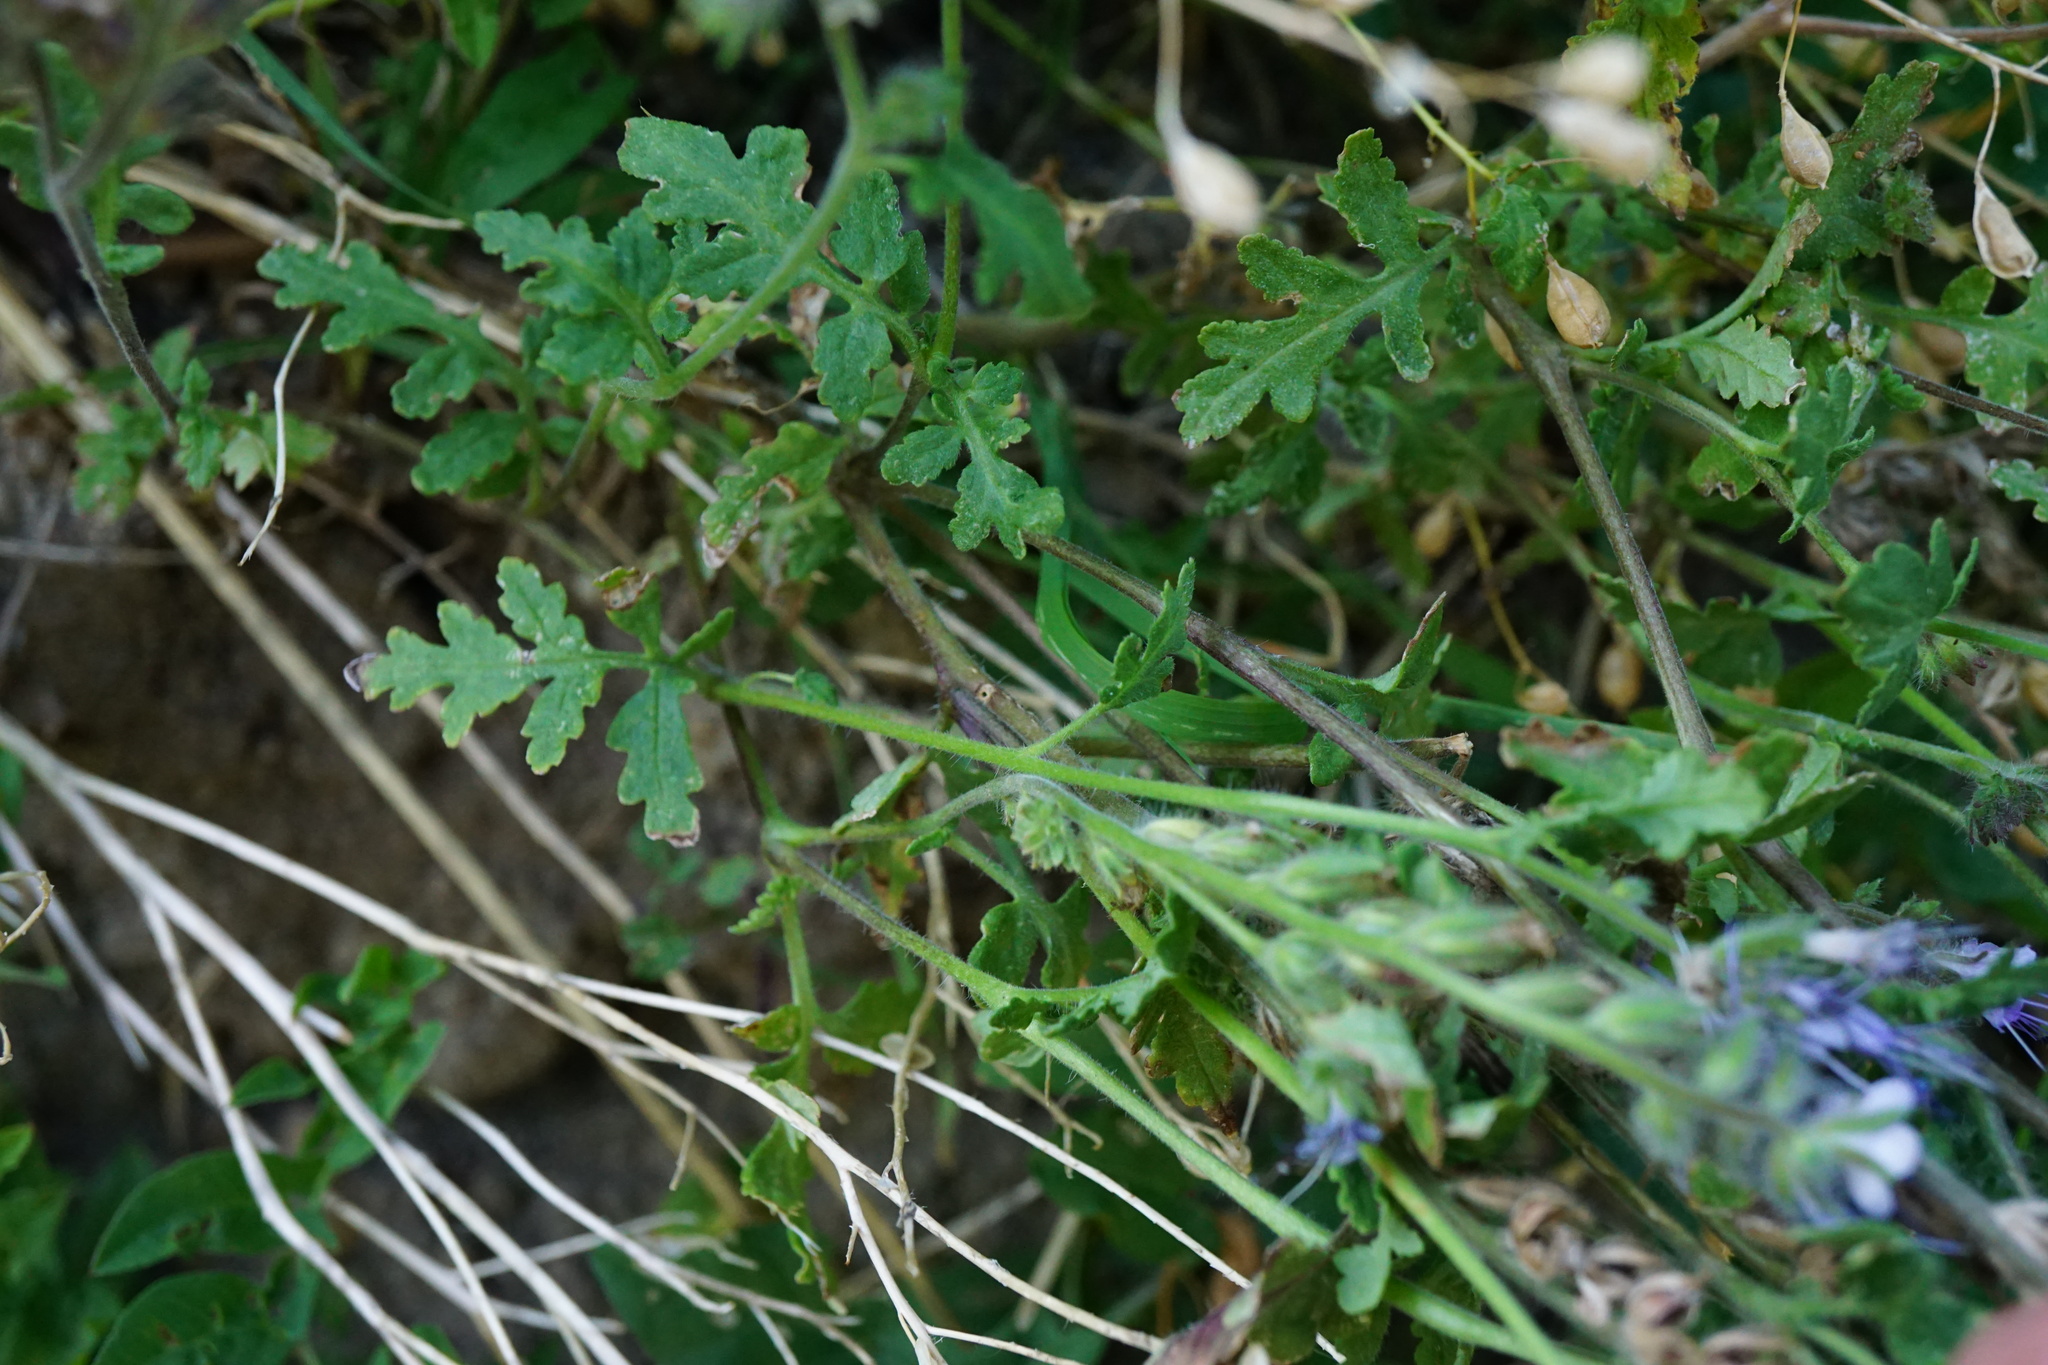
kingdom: Plantae
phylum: Tracheophyta
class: Magnoliopsida
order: Boraginales
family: Hydrophyllaceae
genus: Phacelia
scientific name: Phacelia tanacetifolia
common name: Phacelia
